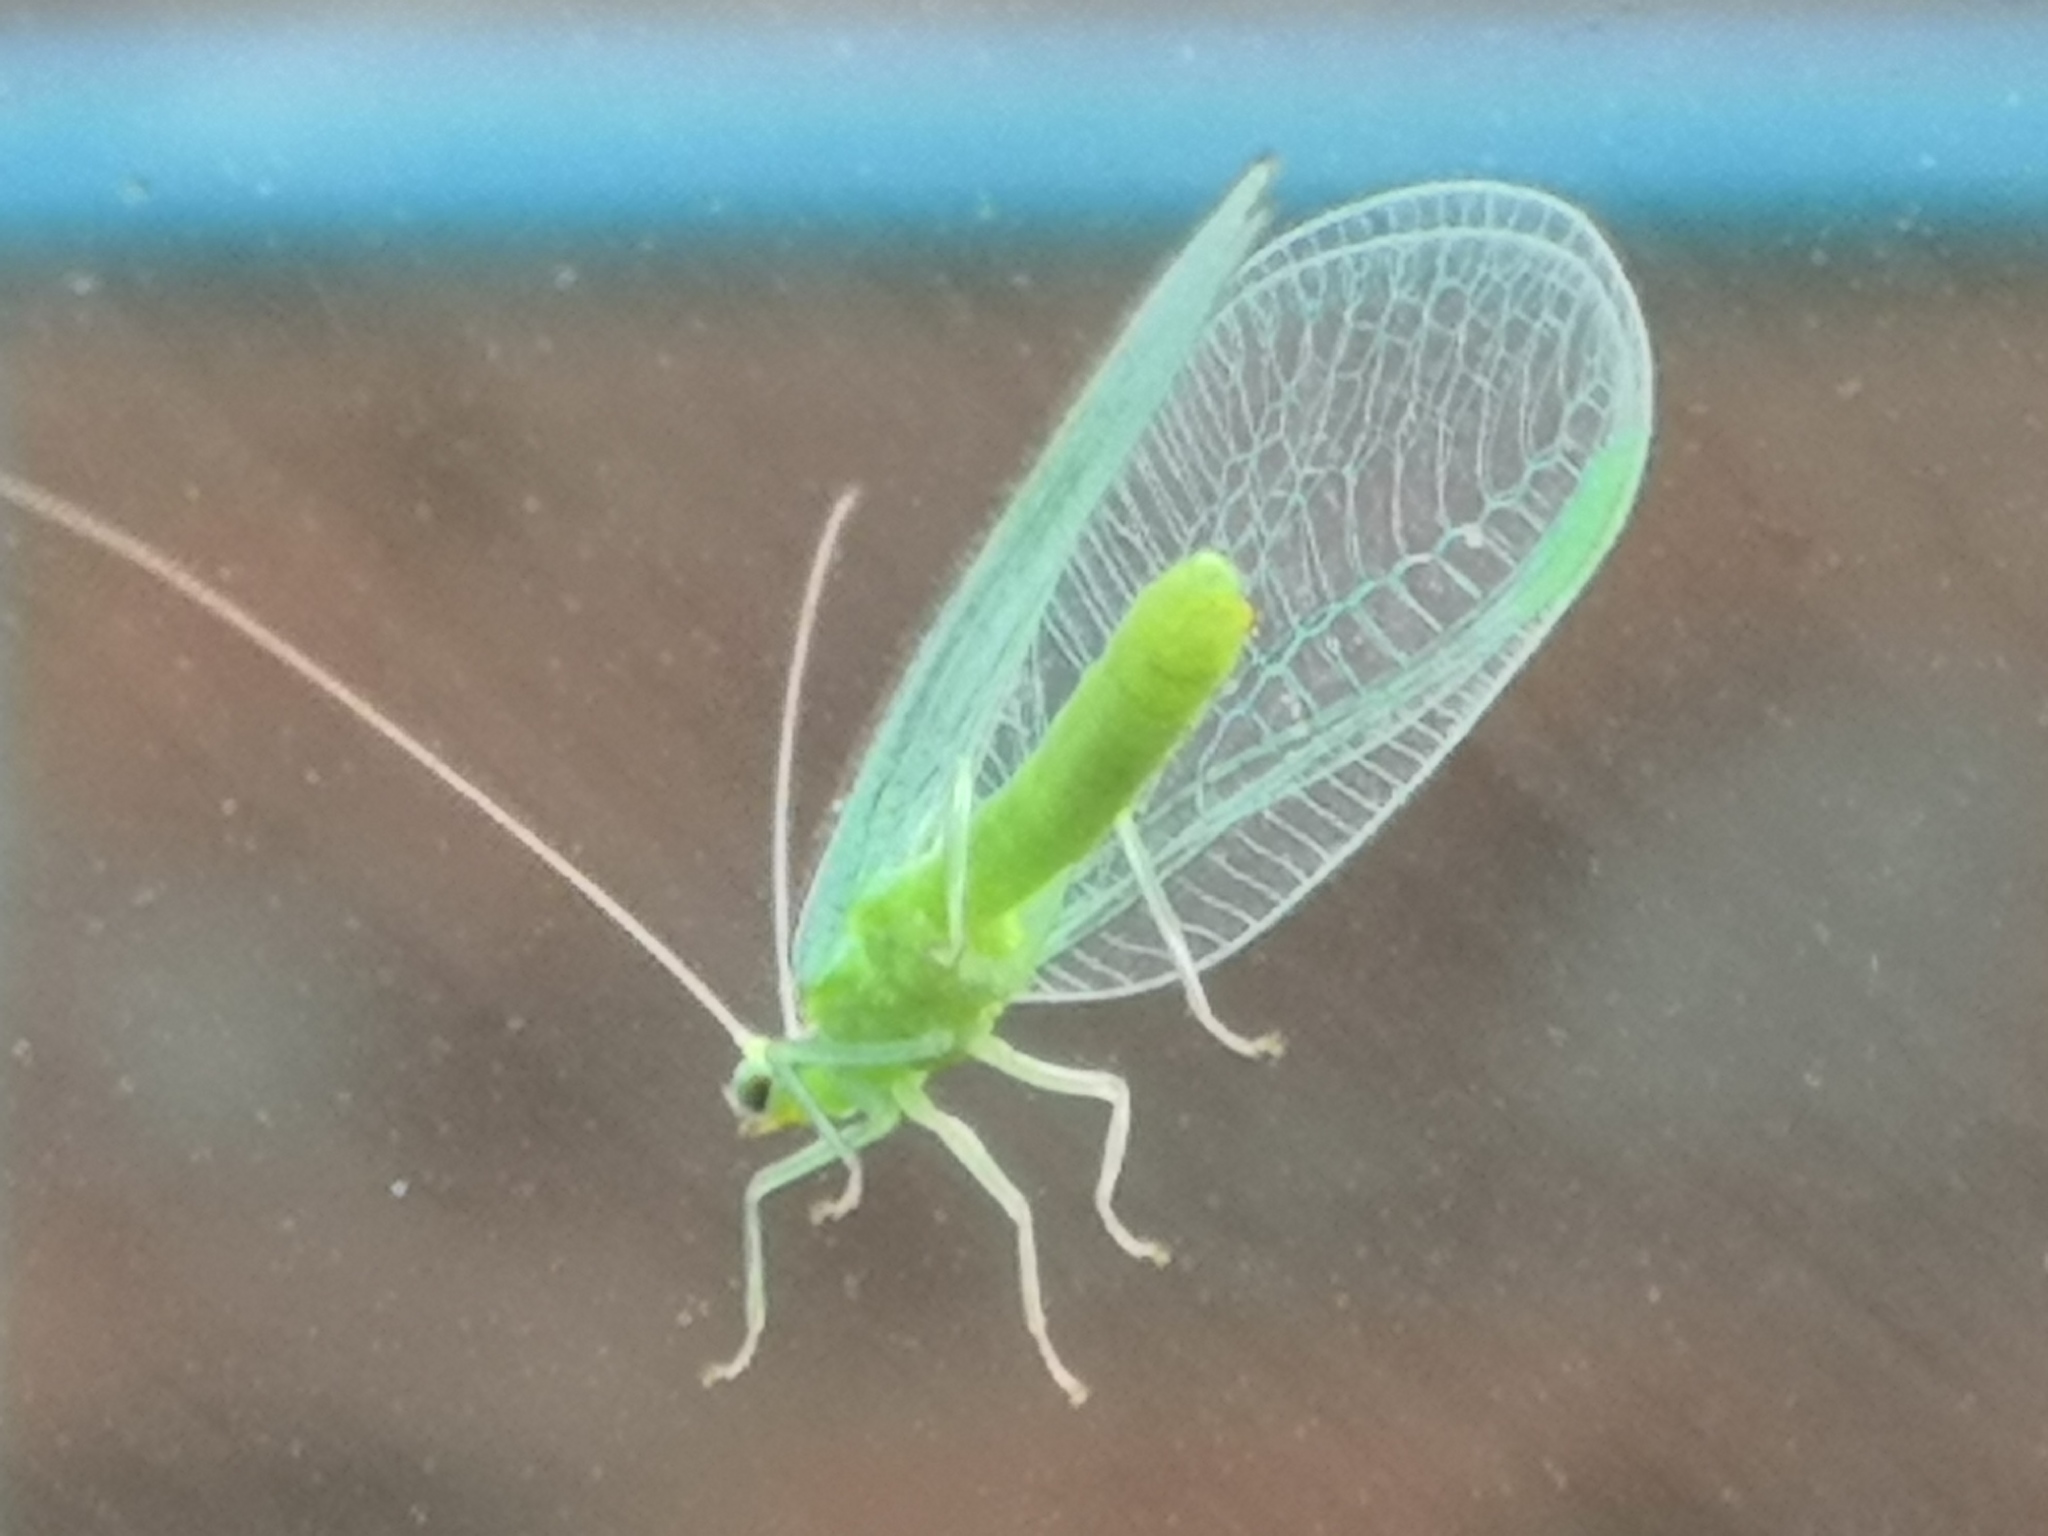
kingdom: Animalia
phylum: Arthropoda
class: Insecta
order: Neuroptera
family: Chrysopidae
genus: Chrysoperla
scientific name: Chrysoperla
